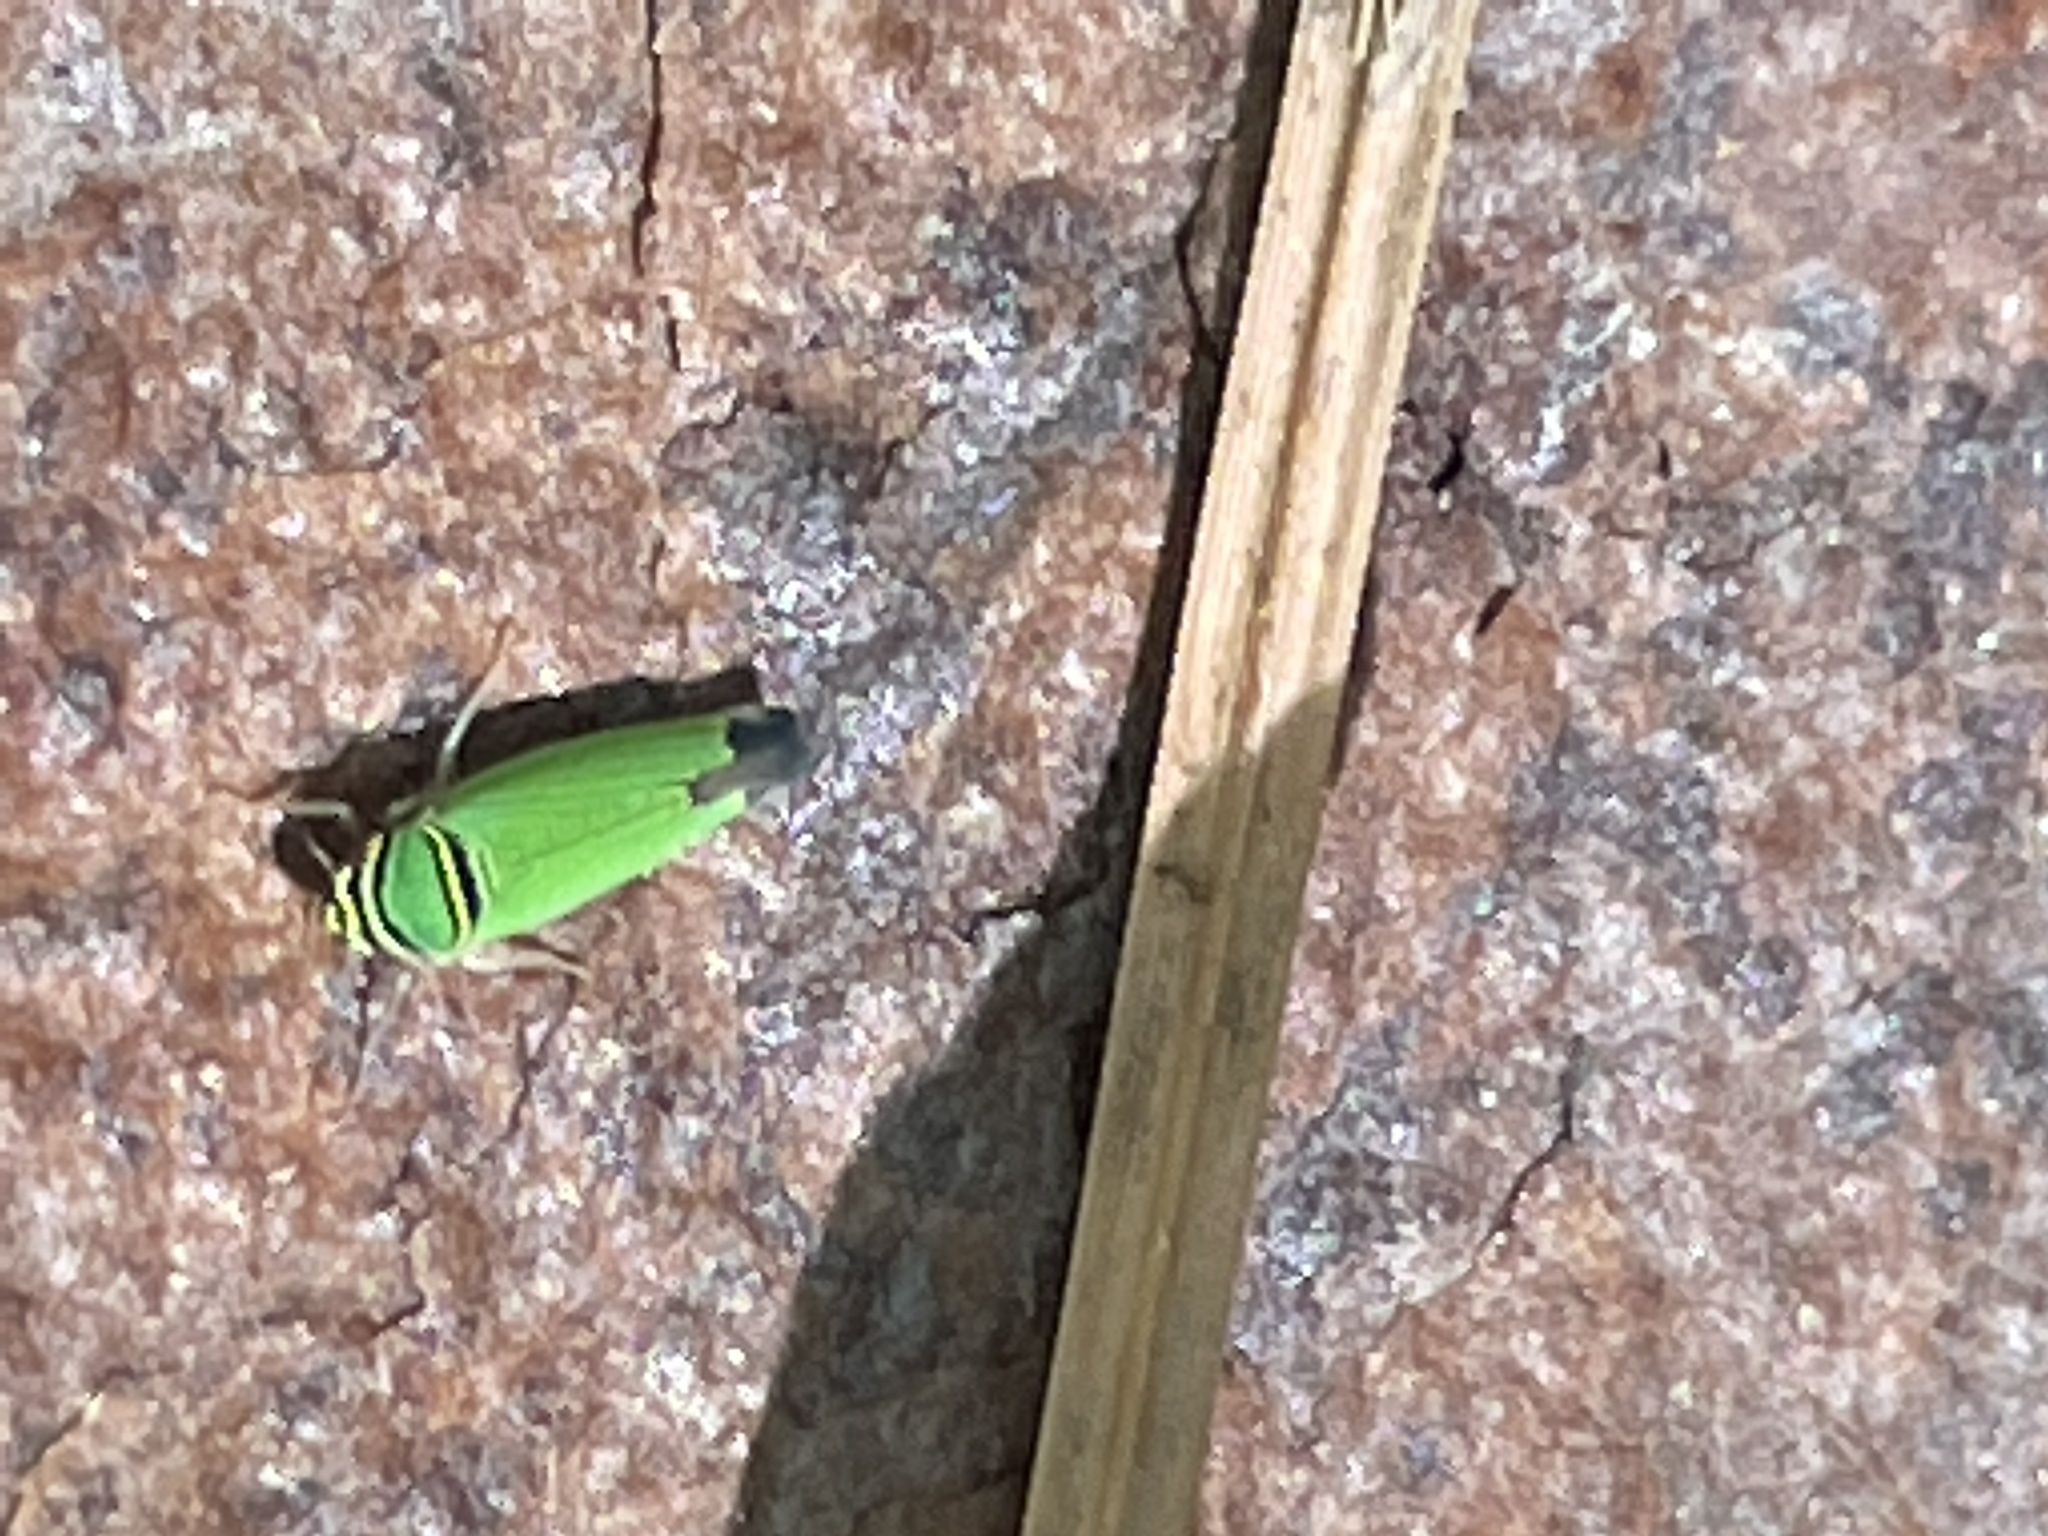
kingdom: Animalia
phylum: Arthropoda
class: Insecta
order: Hemiptera
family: Cicadellidae
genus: Tylozygus
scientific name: Tylozygus geometricus
